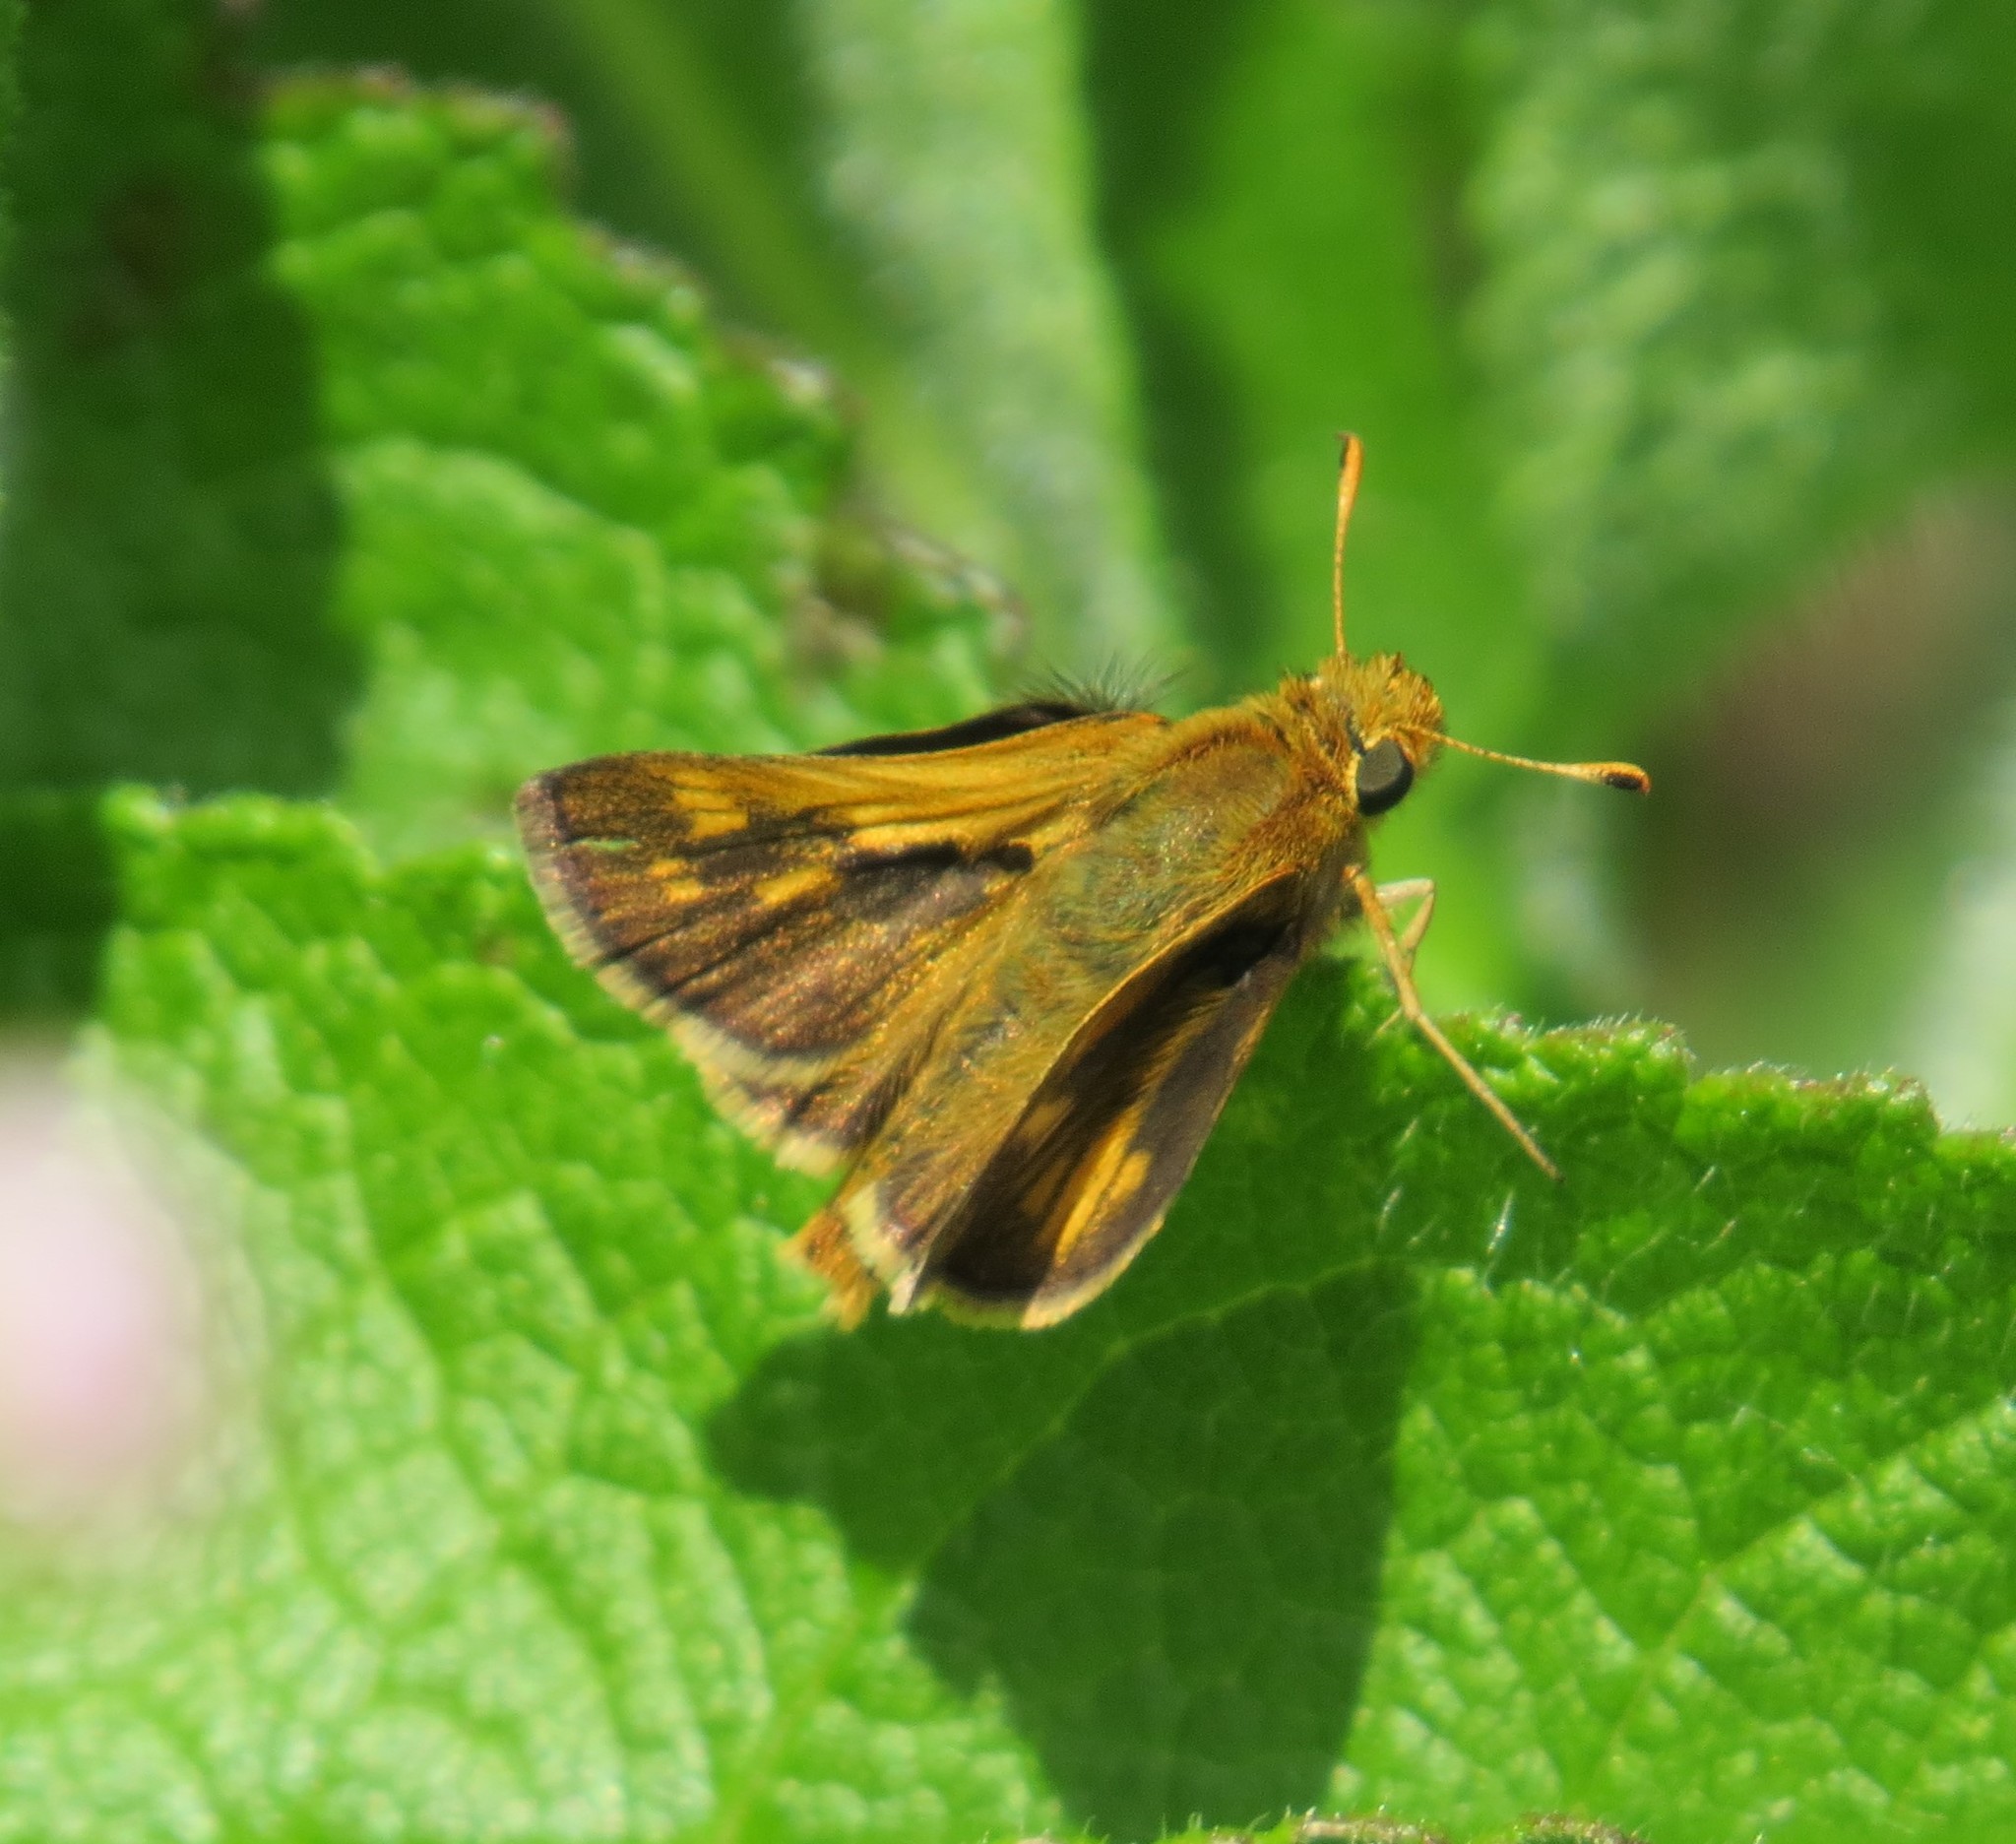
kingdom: Animalia
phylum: Arthropoda
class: Insecta
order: Lepidoptera
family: Hesperiidae
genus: Polites
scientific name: Polites coras
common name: Peck's skipper
